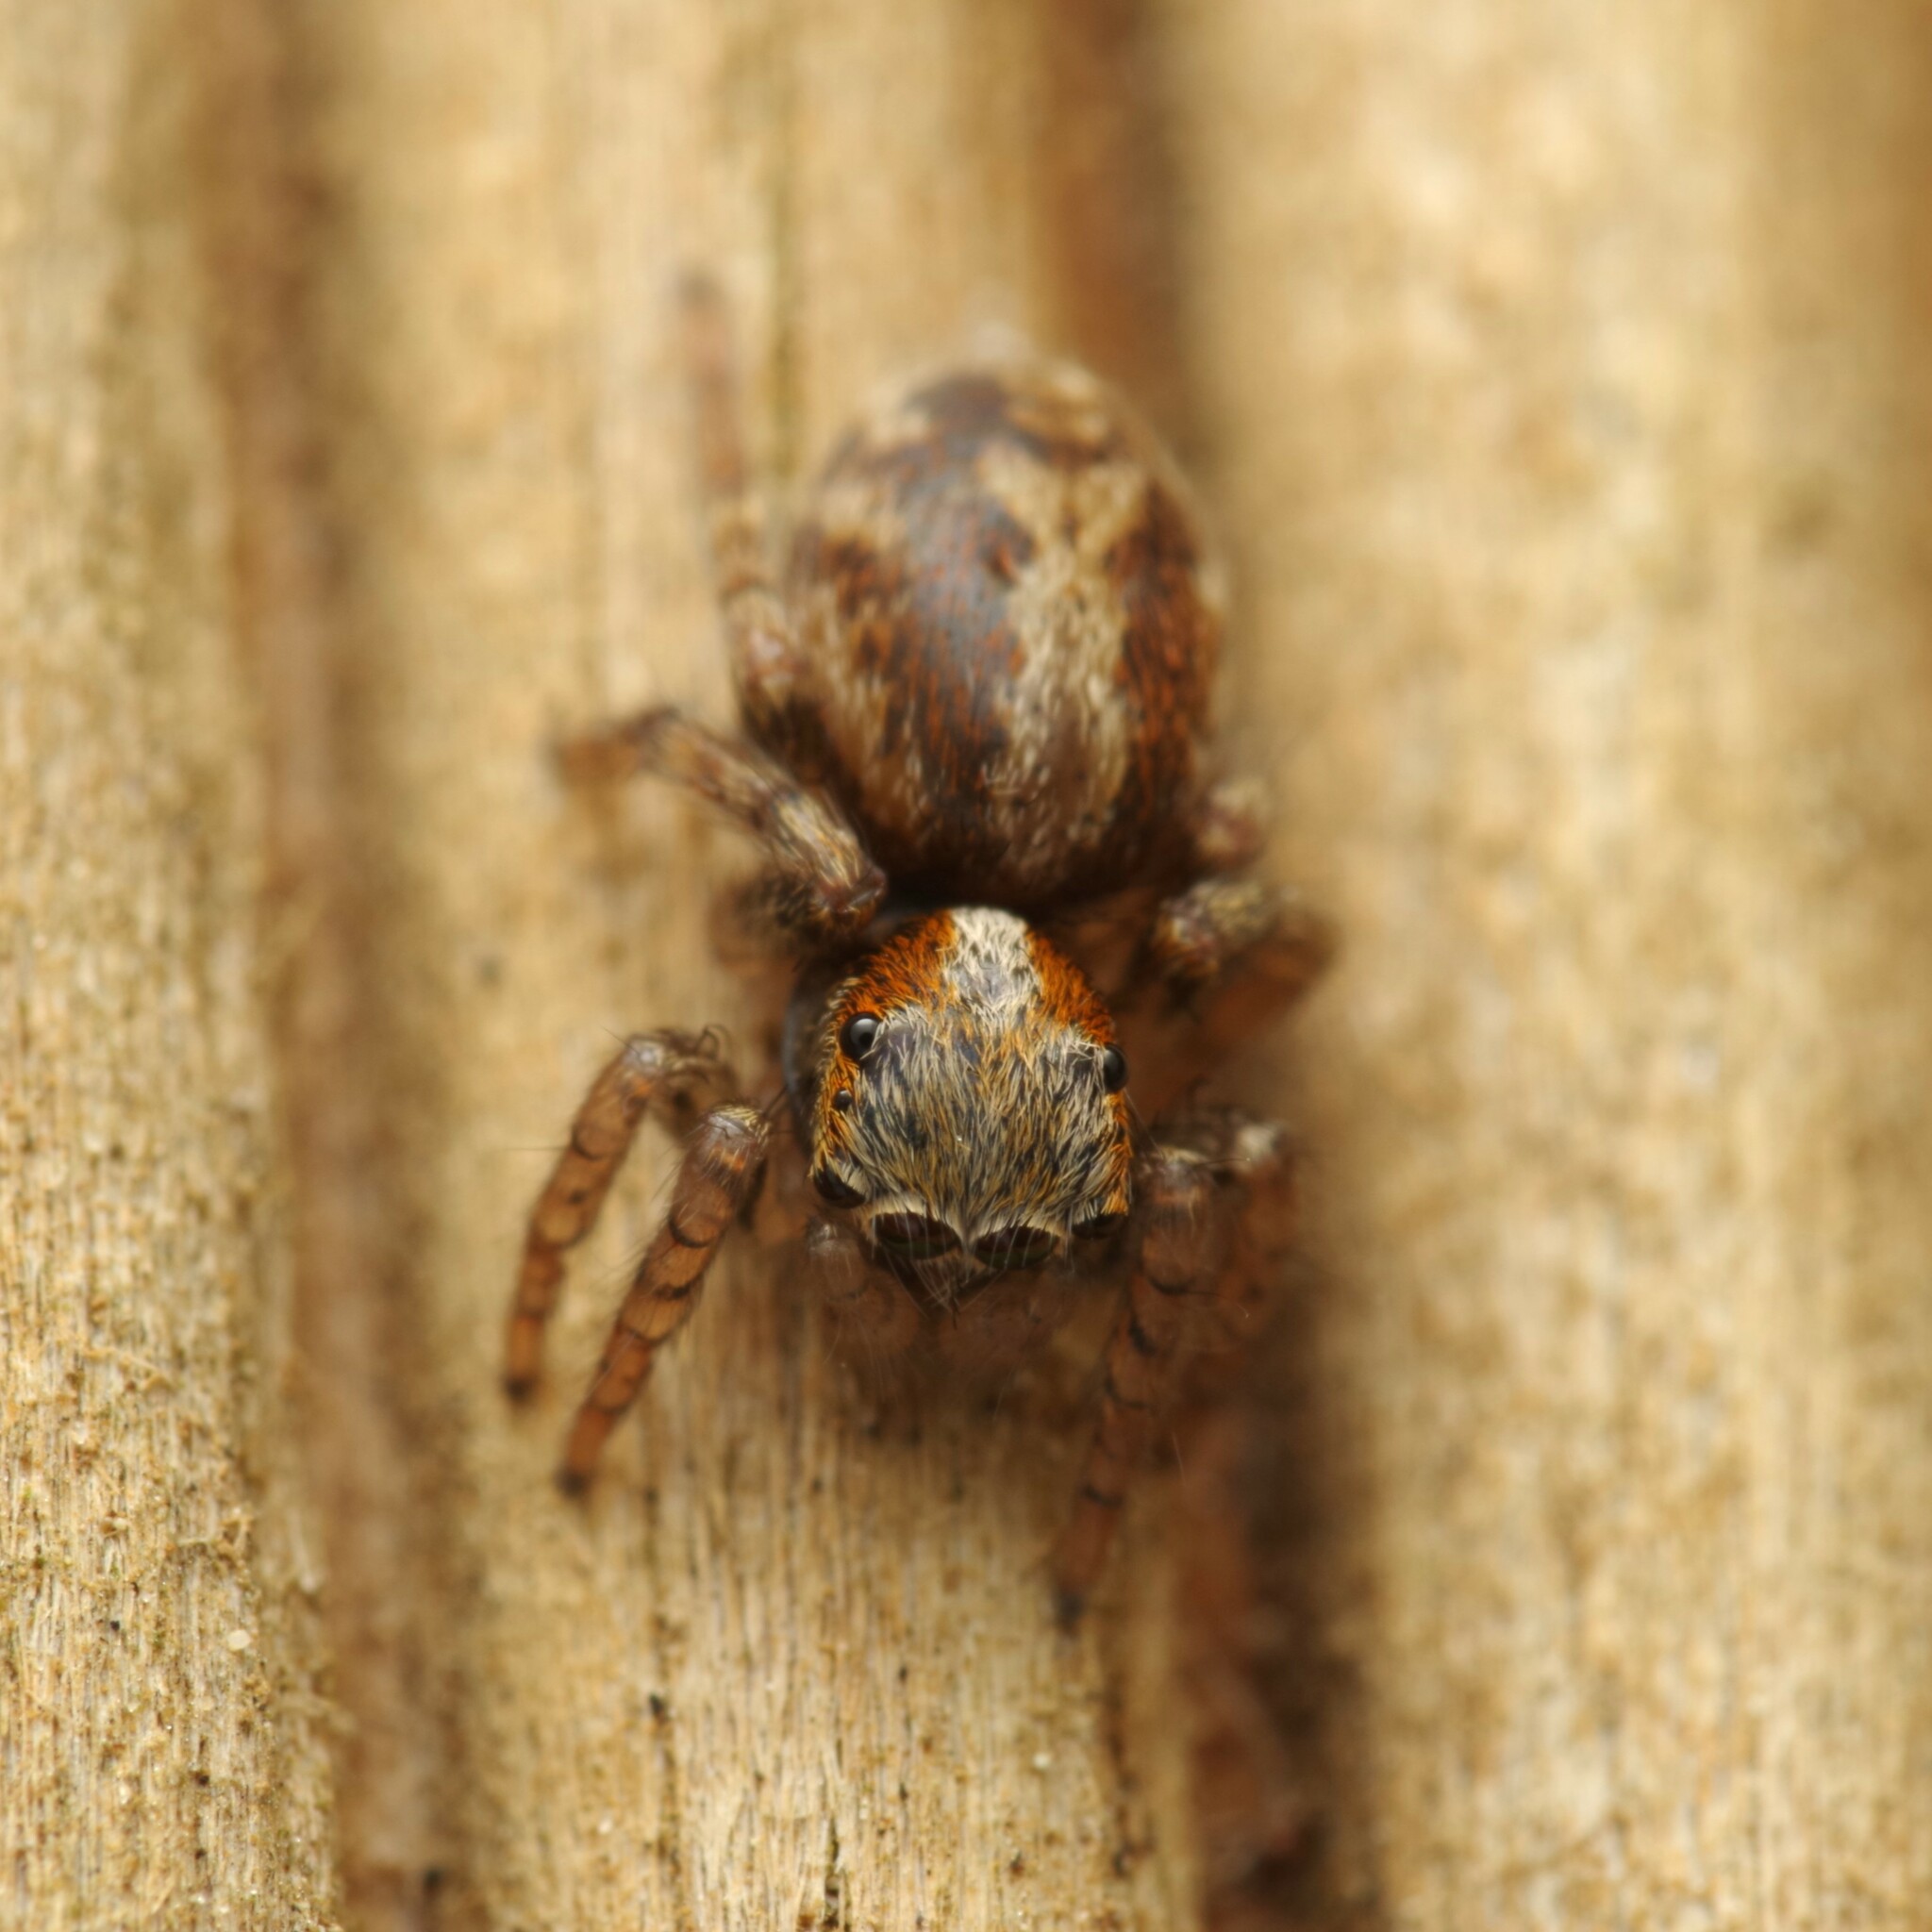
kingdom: Animalia
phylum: Arthropoda
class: Arachnida
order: Araneae
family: Salticidae
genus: Saitis
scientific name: Saitis barbipes
